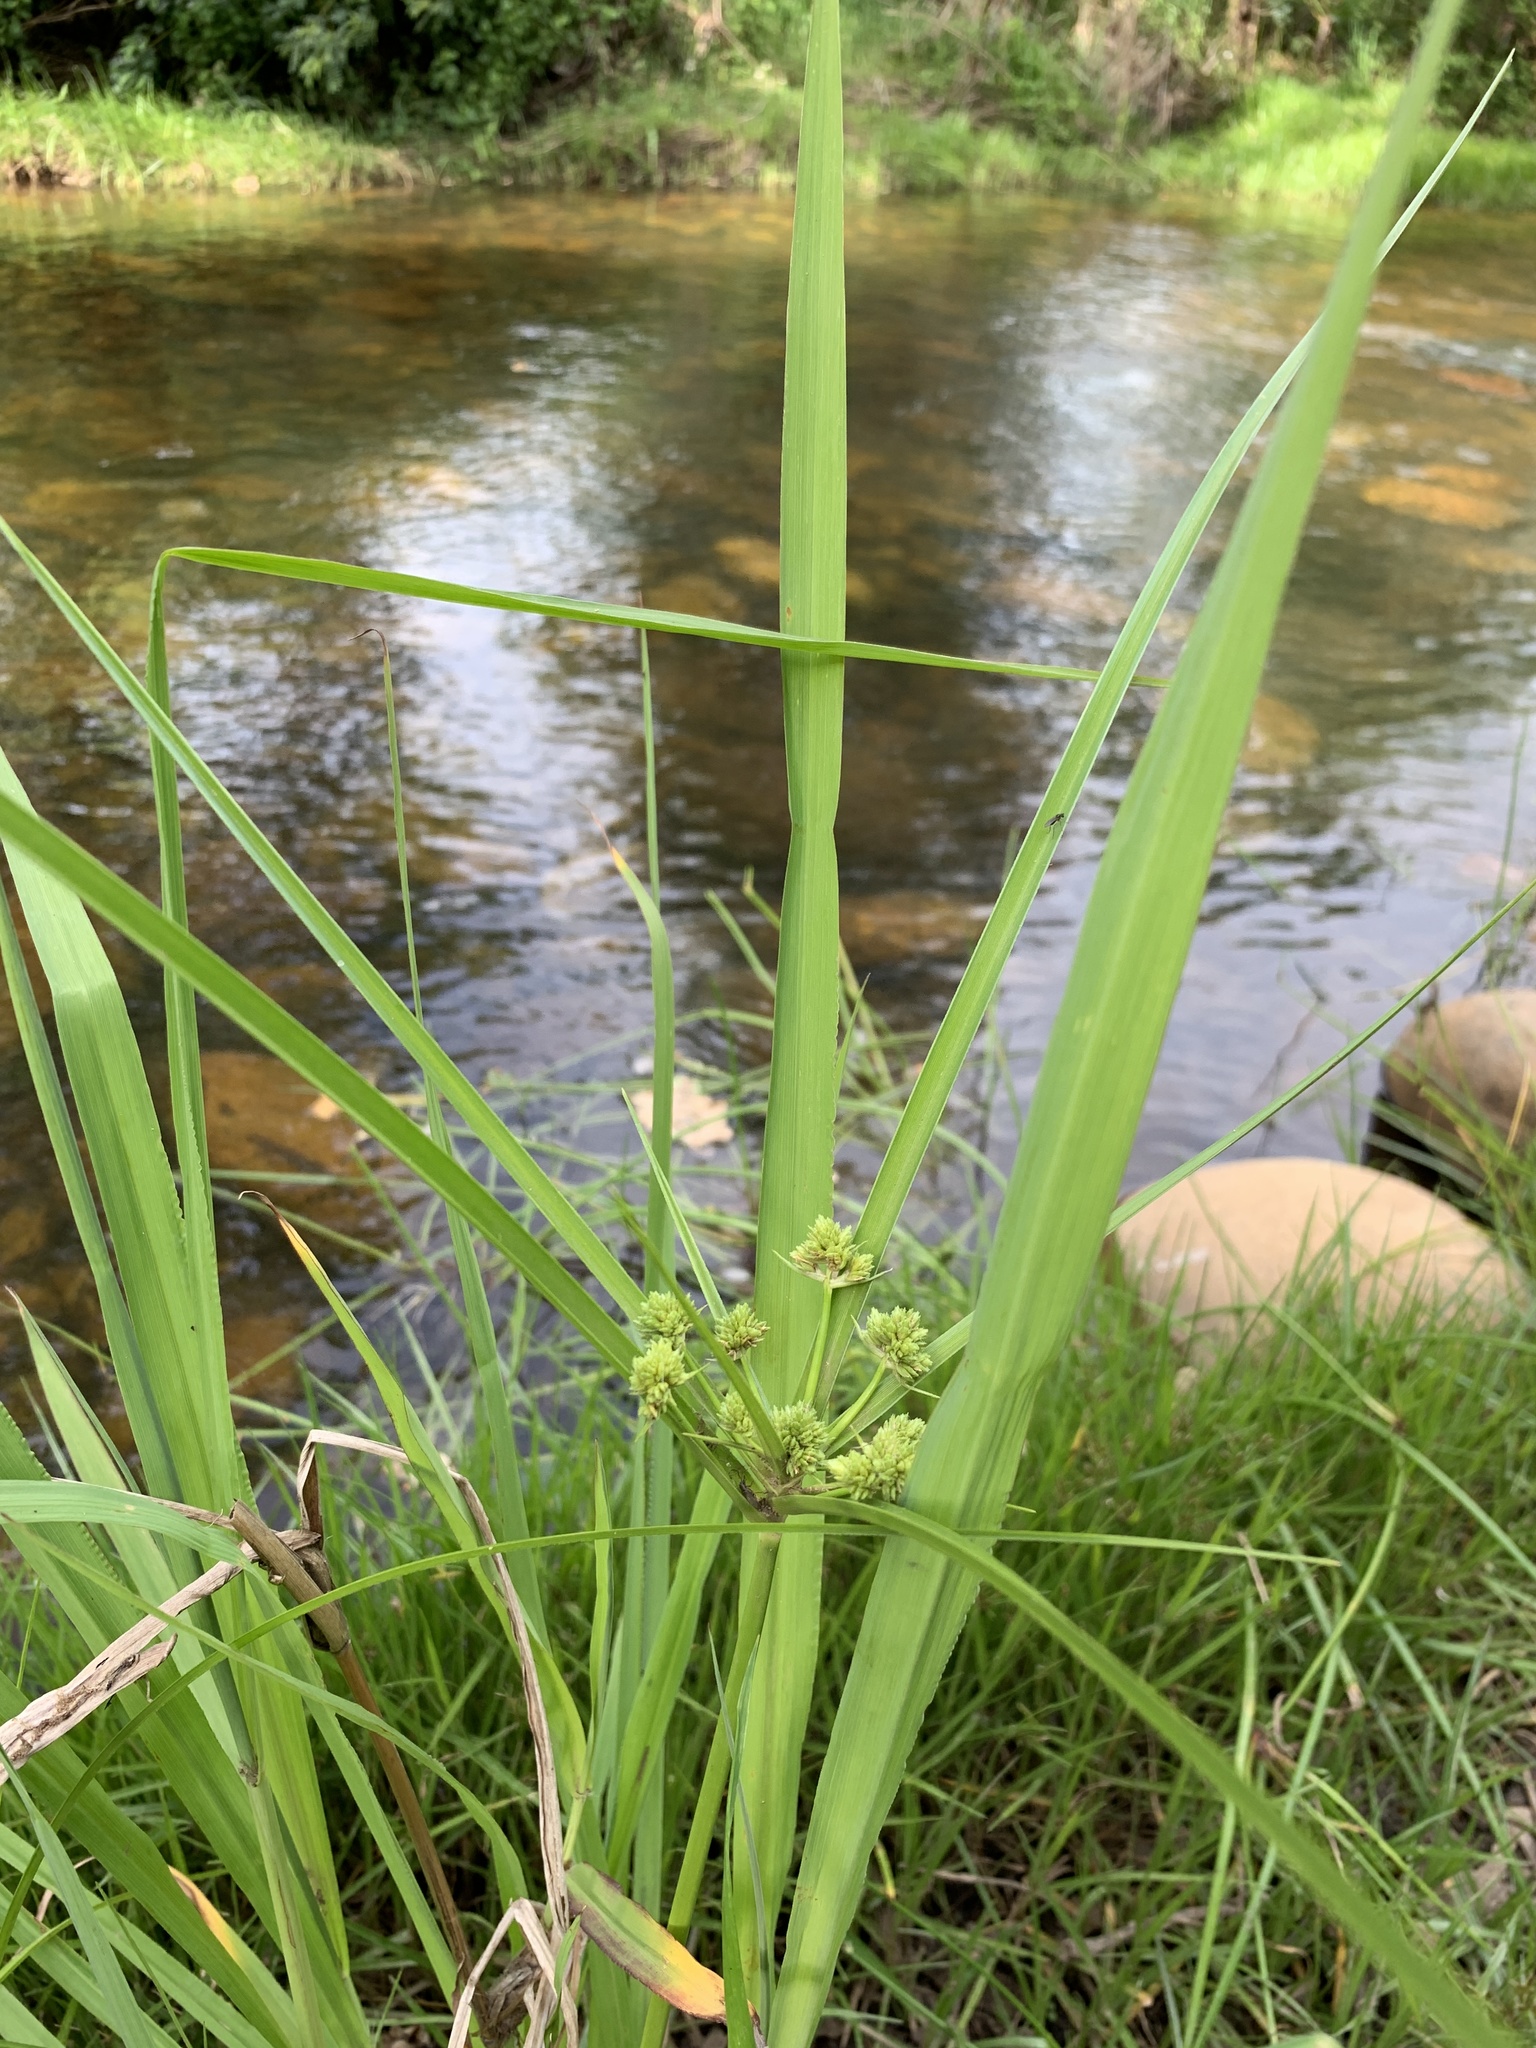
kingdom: Plantae
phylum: Tracheophyta
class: Liliopsida
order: Poales
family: Cyperaceae
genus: Cyperus
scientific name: Cyperus eragrostis
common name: Tall flatsedge
